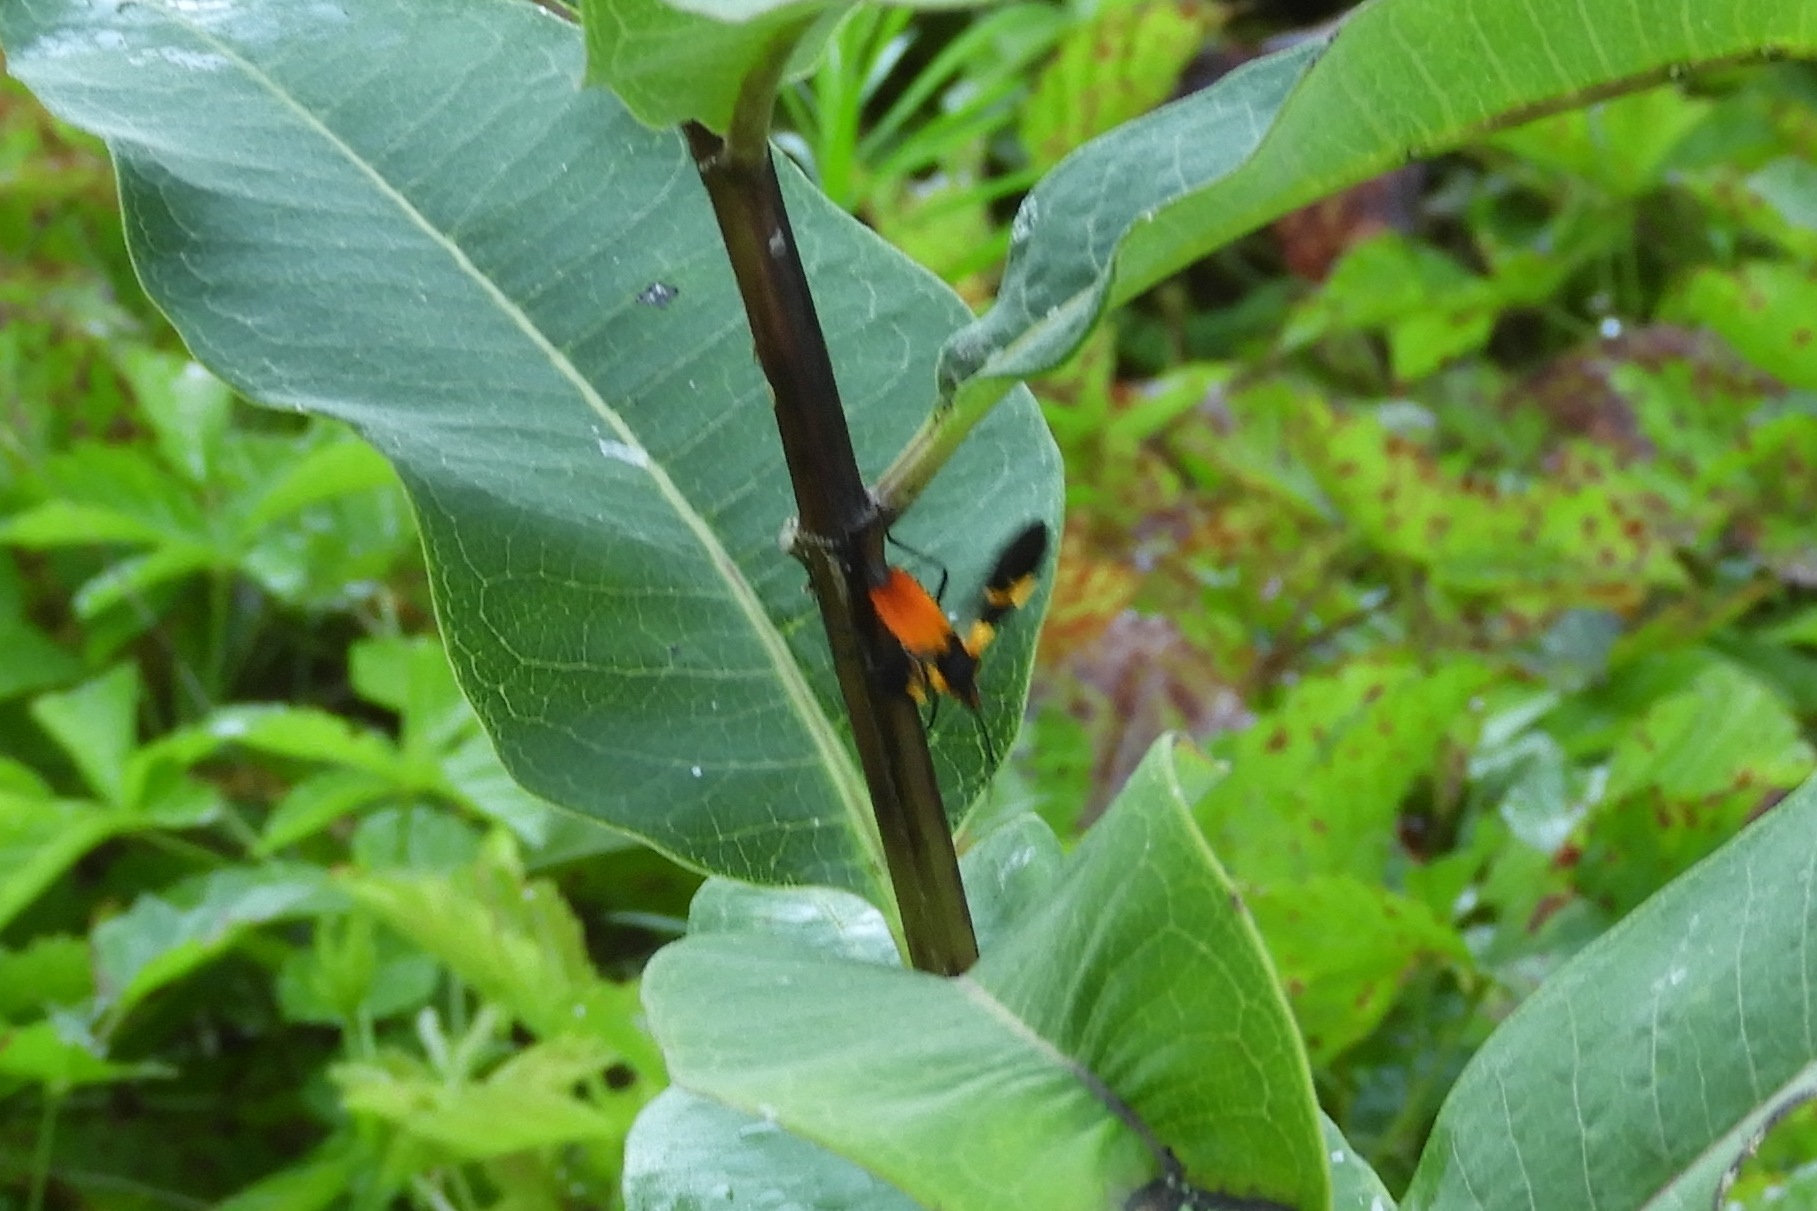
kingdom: Animalia
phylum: Arthropoda
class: Insecta
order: Hemiptera
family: Lygaeidae
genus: Oncopeltus
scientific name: Oncopeltus fasciatus
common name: Large milkweed bug
